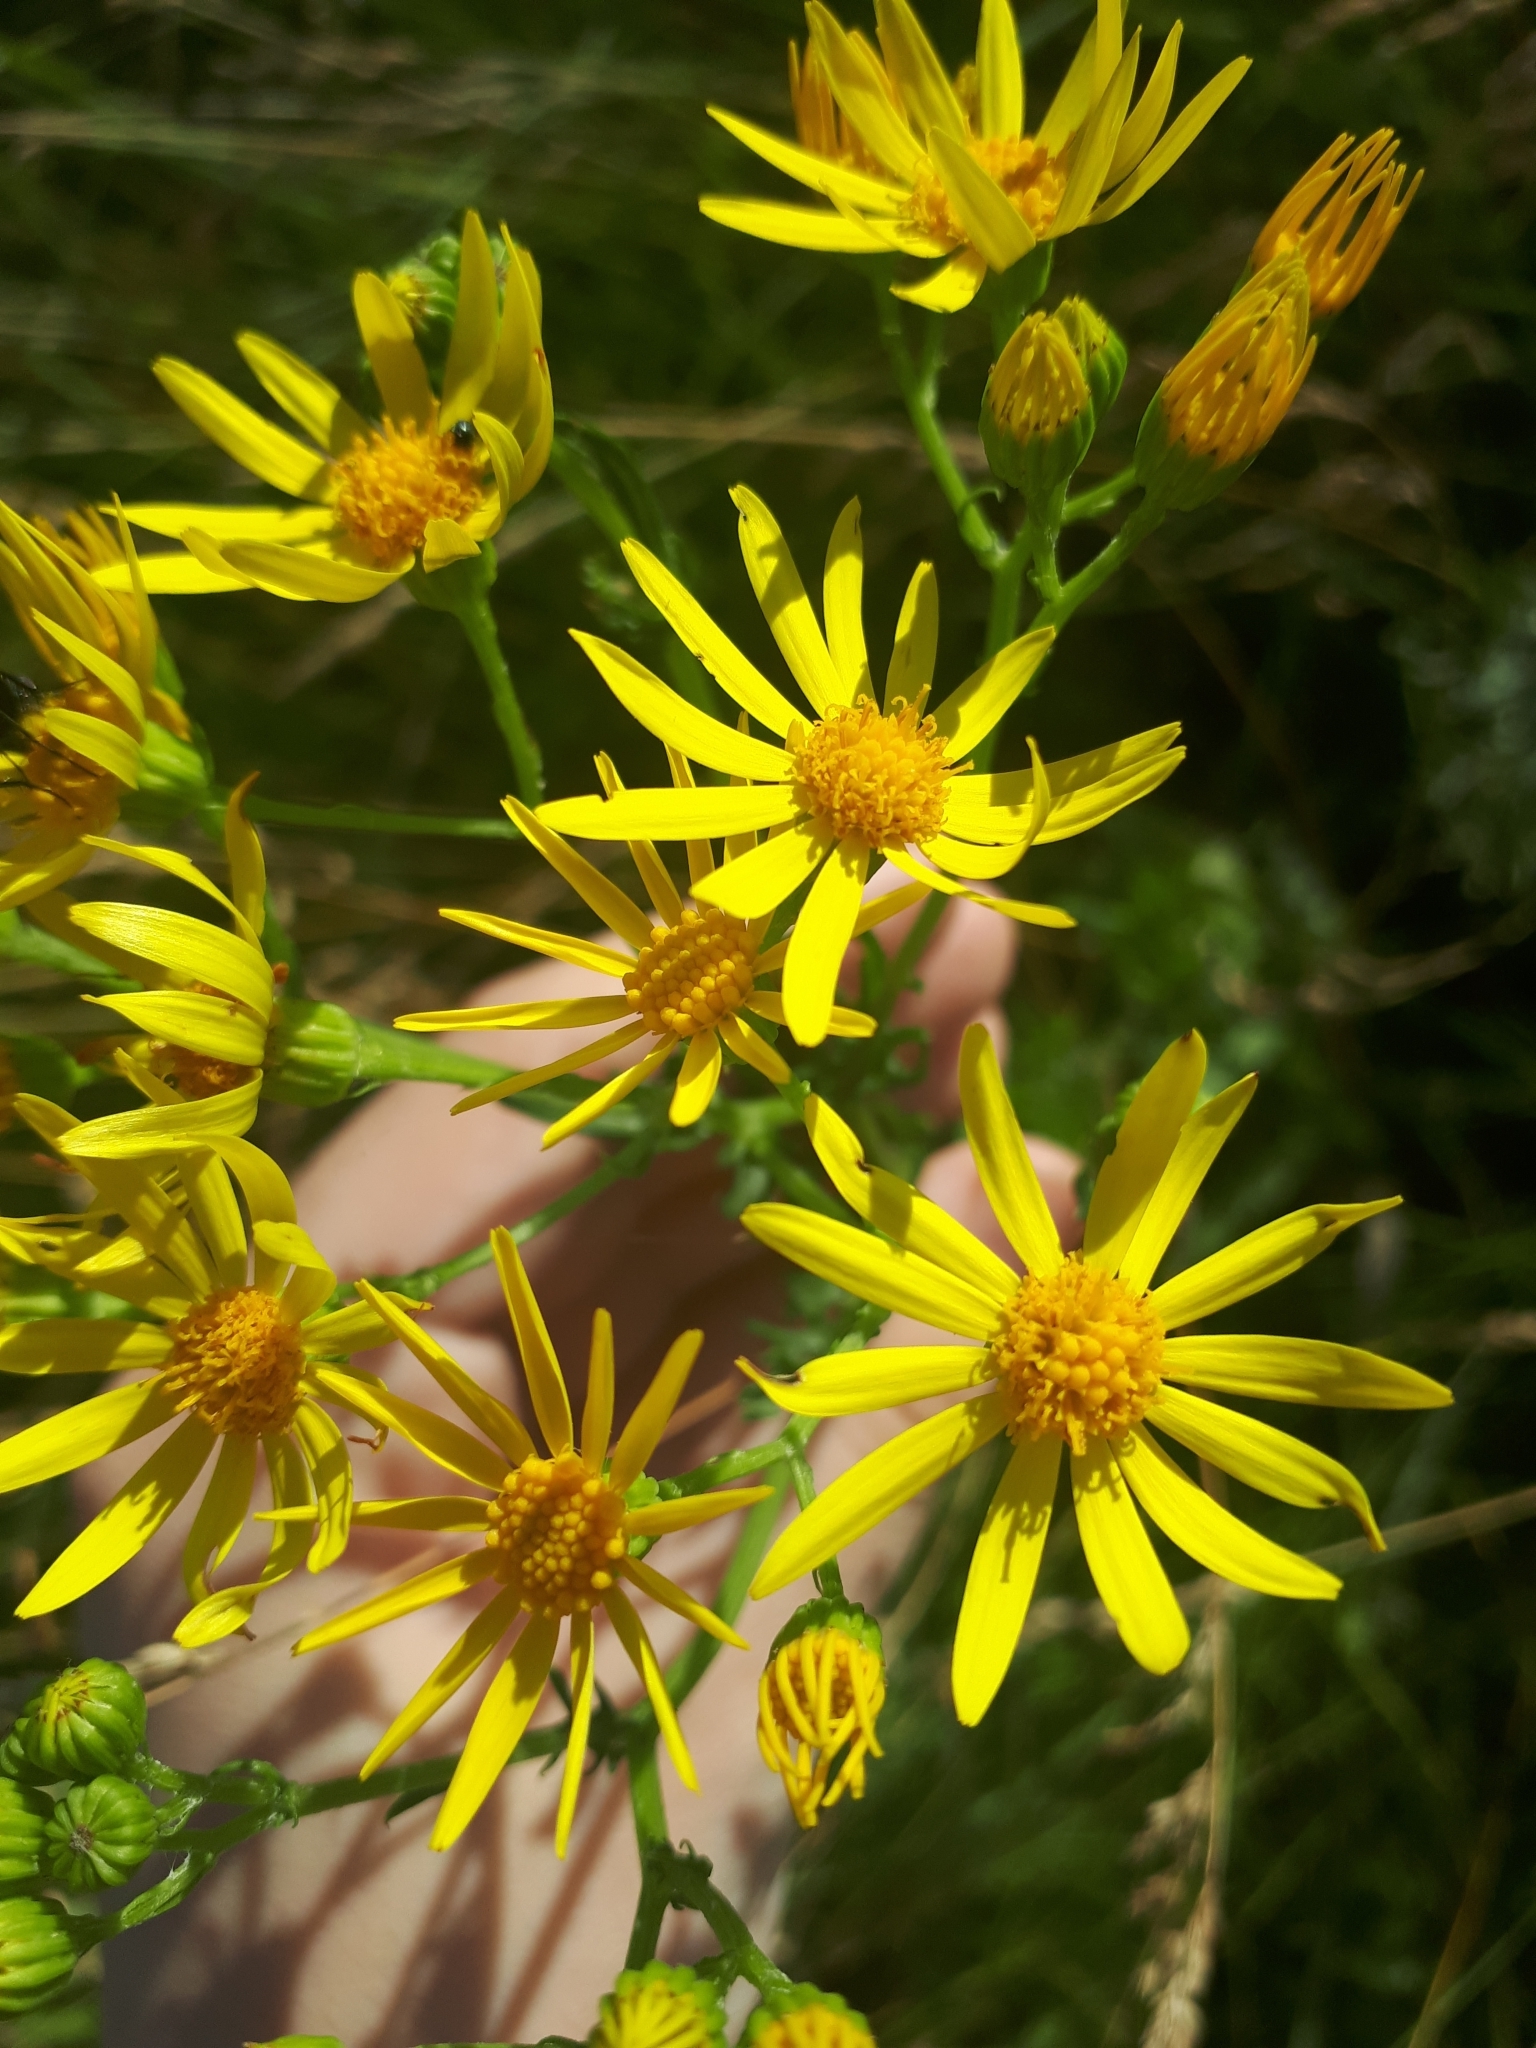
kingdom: Plantae
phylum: Tracheophyta
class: Magnoliopsida
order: Asterales
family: Asteraceae
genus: Jacobaea
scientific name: Jacobaea vulgaris
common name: Stinking willie
